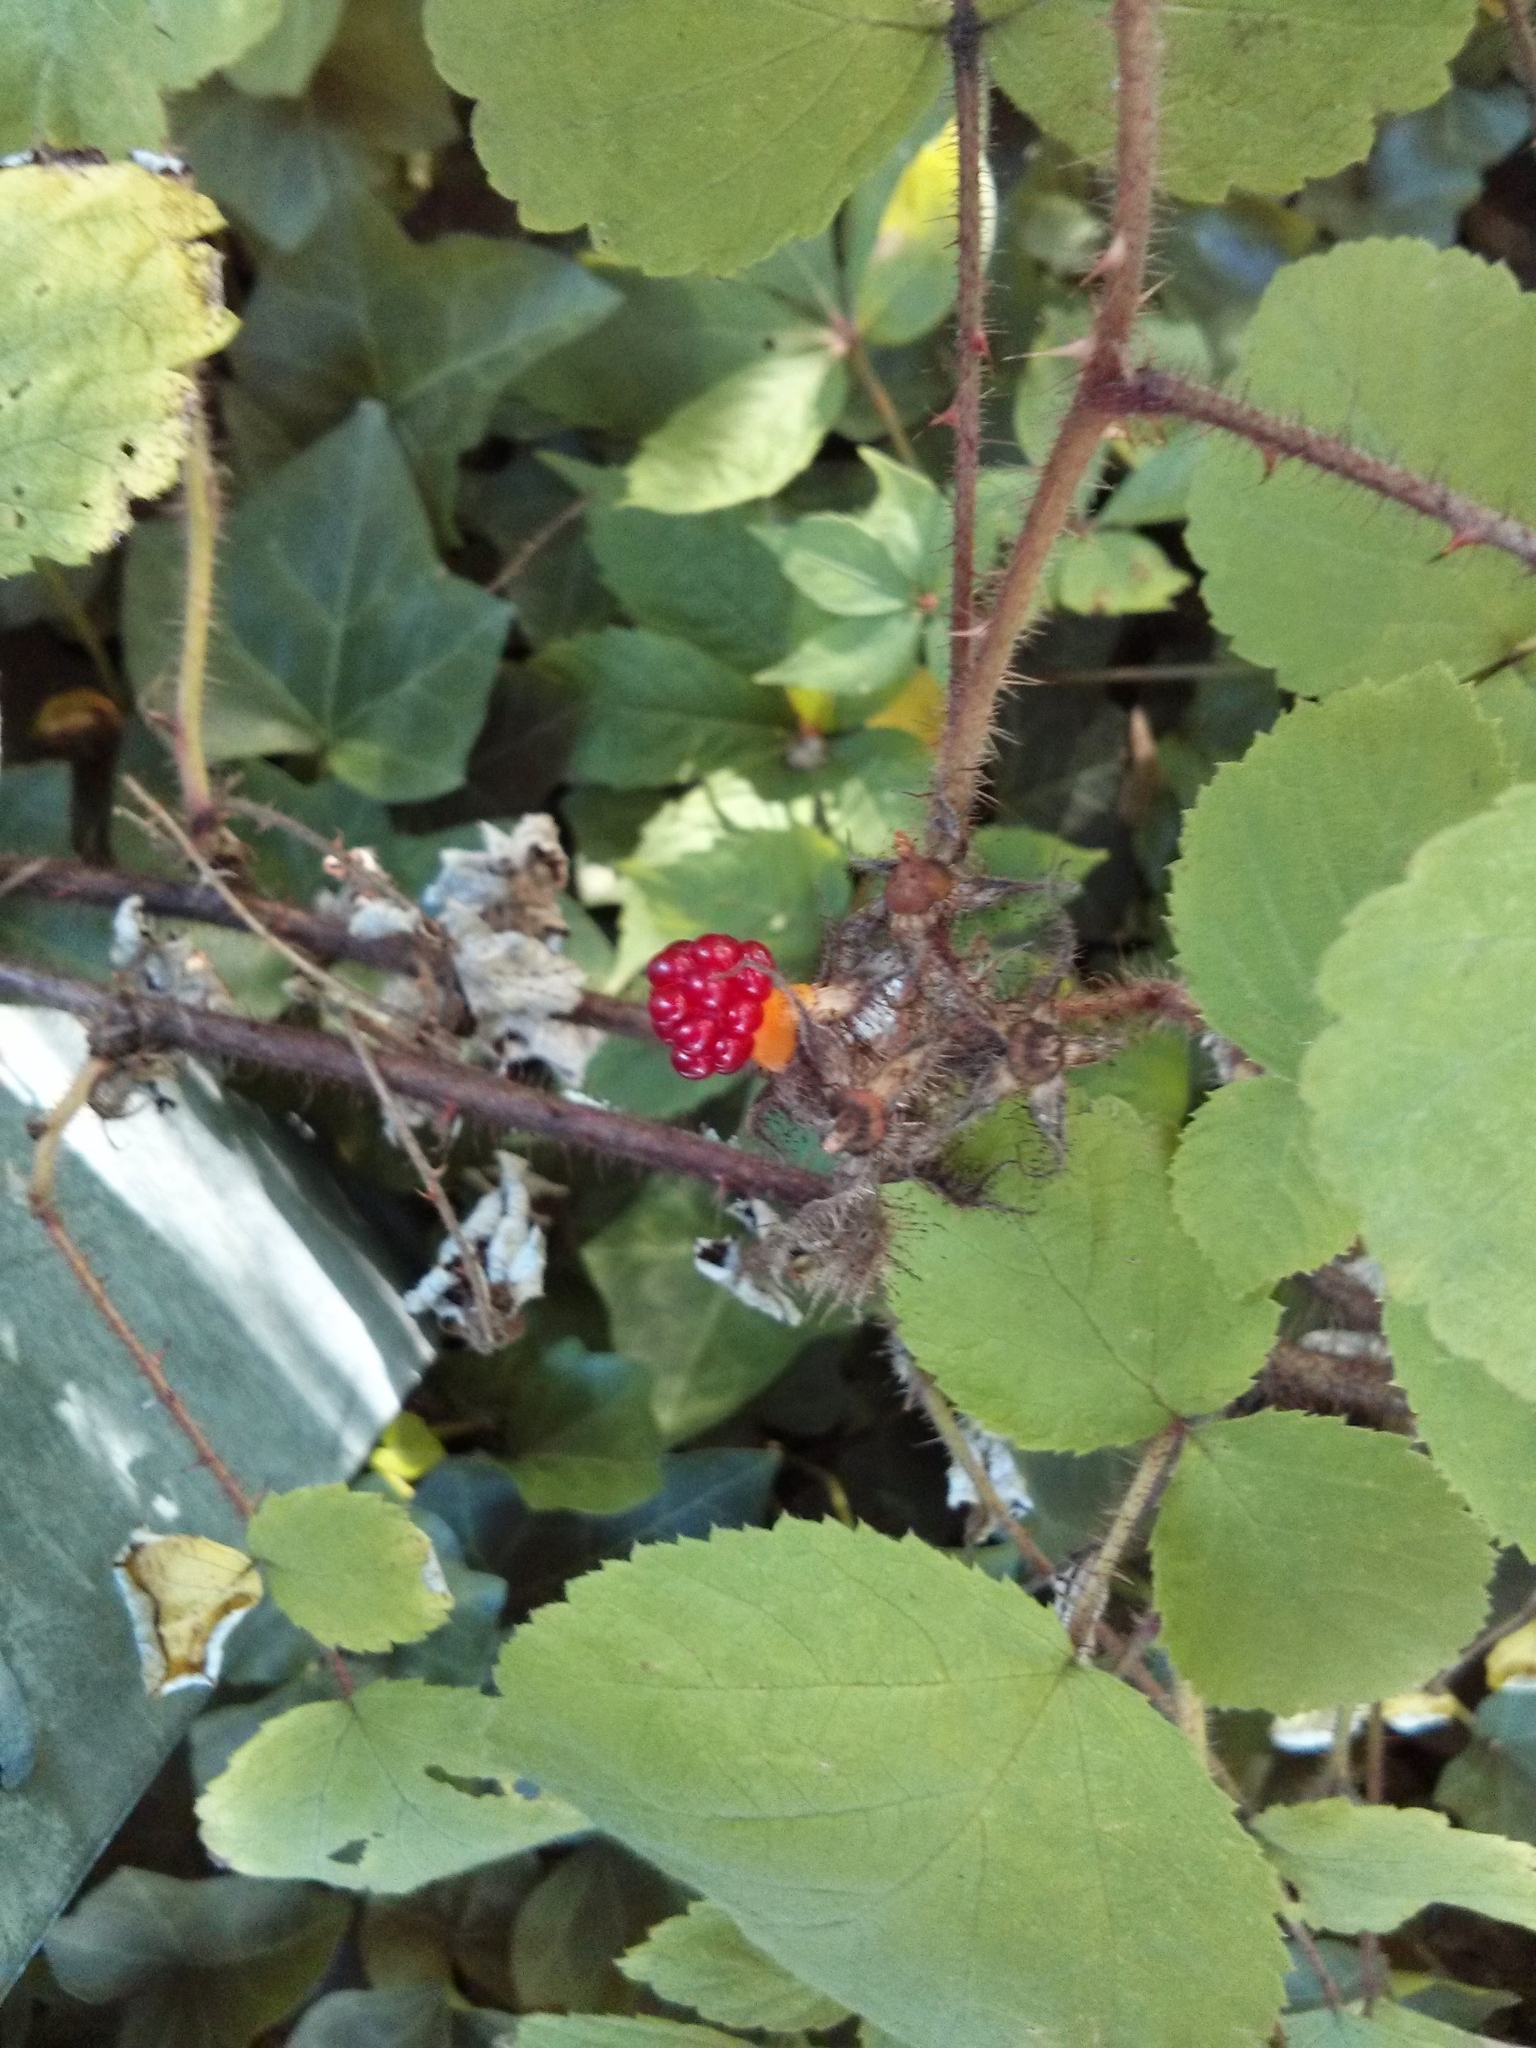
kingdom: Plantae
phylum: Tracheophyta
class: Magnoliopsida
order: Rosales
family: Rosaceae
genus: Rubus
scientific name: Rubus phoenicolasius
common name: Japanese wineberry
